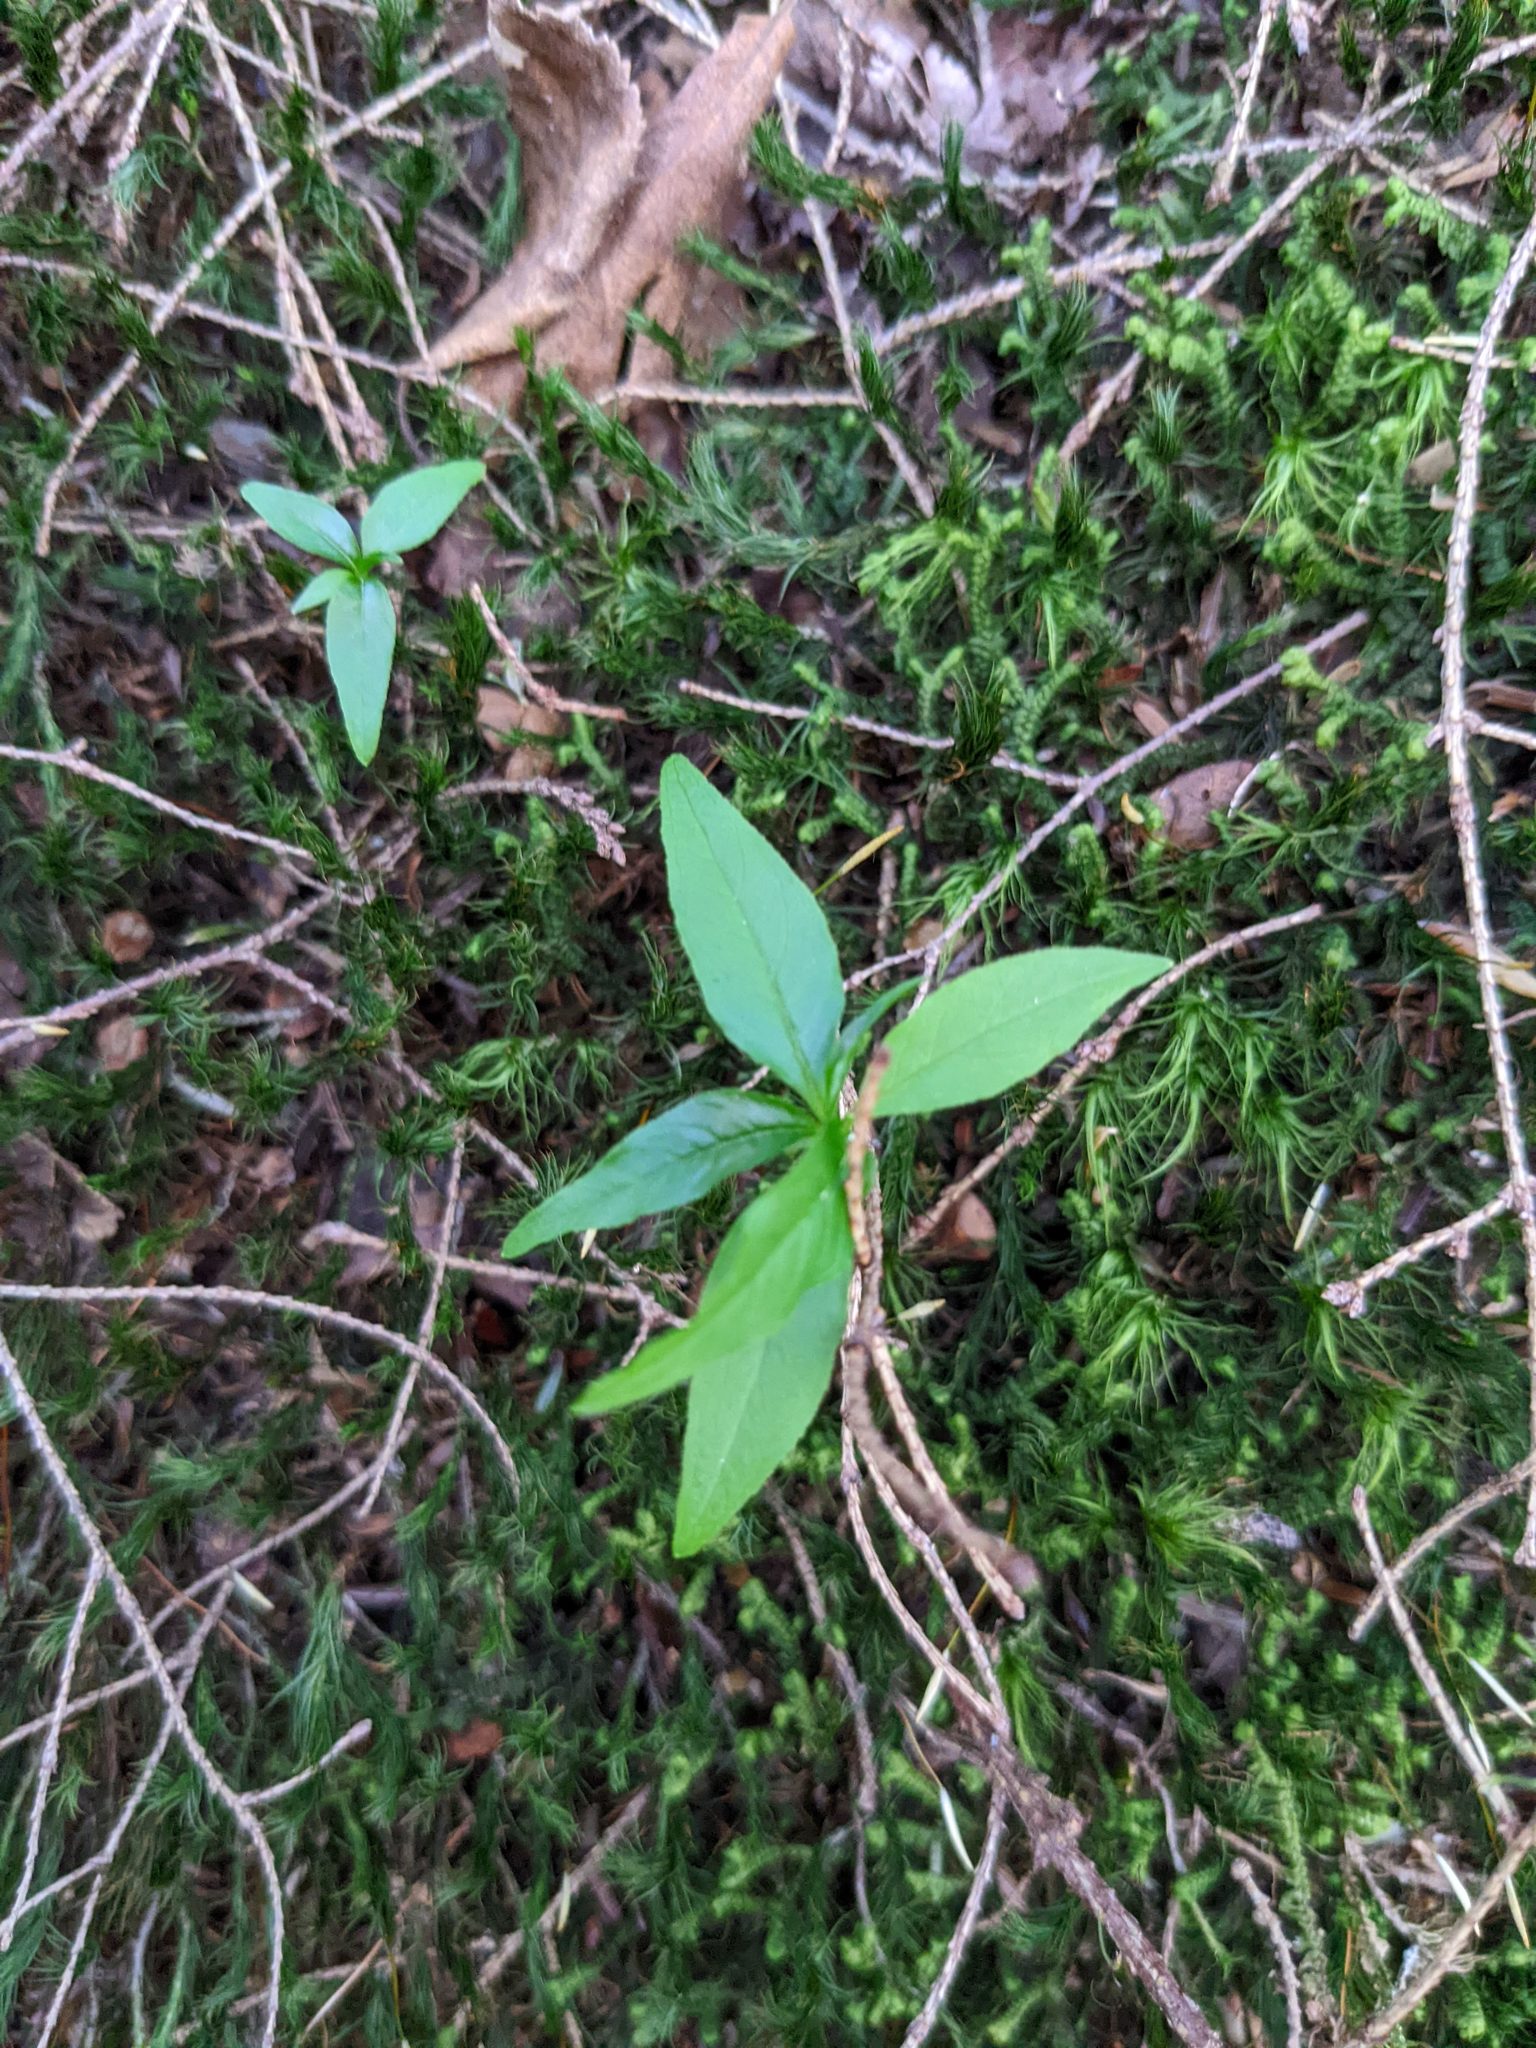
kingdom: Plantae
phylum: Tracheophyta
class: Magnoliopsida
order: Ericales
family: Primulaceae
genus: Lysimachia
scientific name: Lysimachia borealis
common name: American starflower
